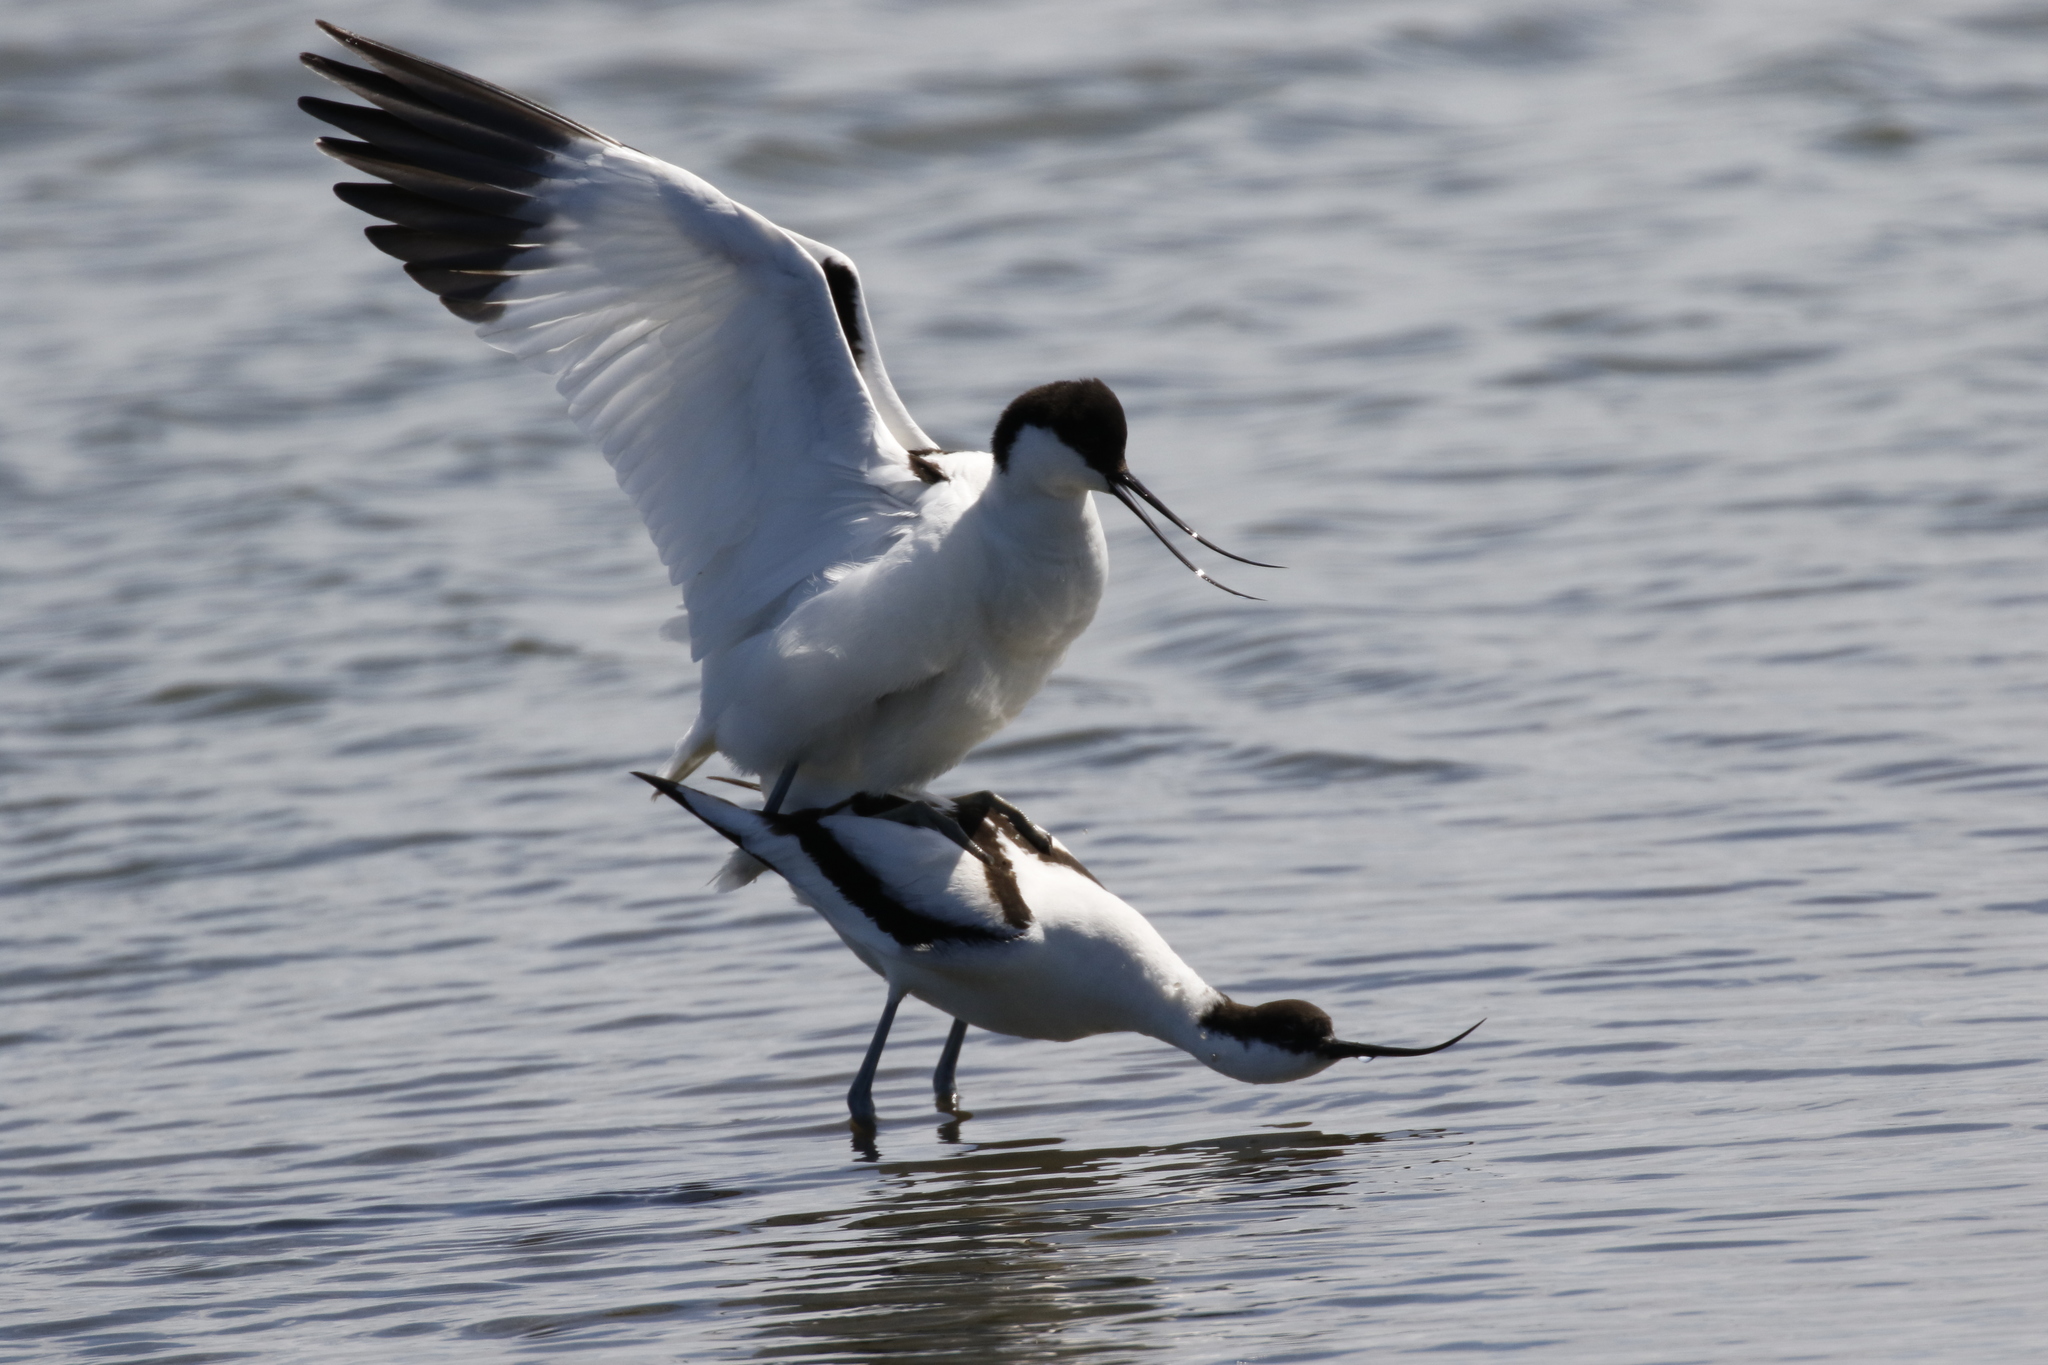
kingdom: Animalia
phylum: Chordata
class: Aves
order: Charadriiformes
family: Recurvirostridae
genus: Recurvirostra
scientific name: Recurvirostra avosetta
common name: Pied avocet
